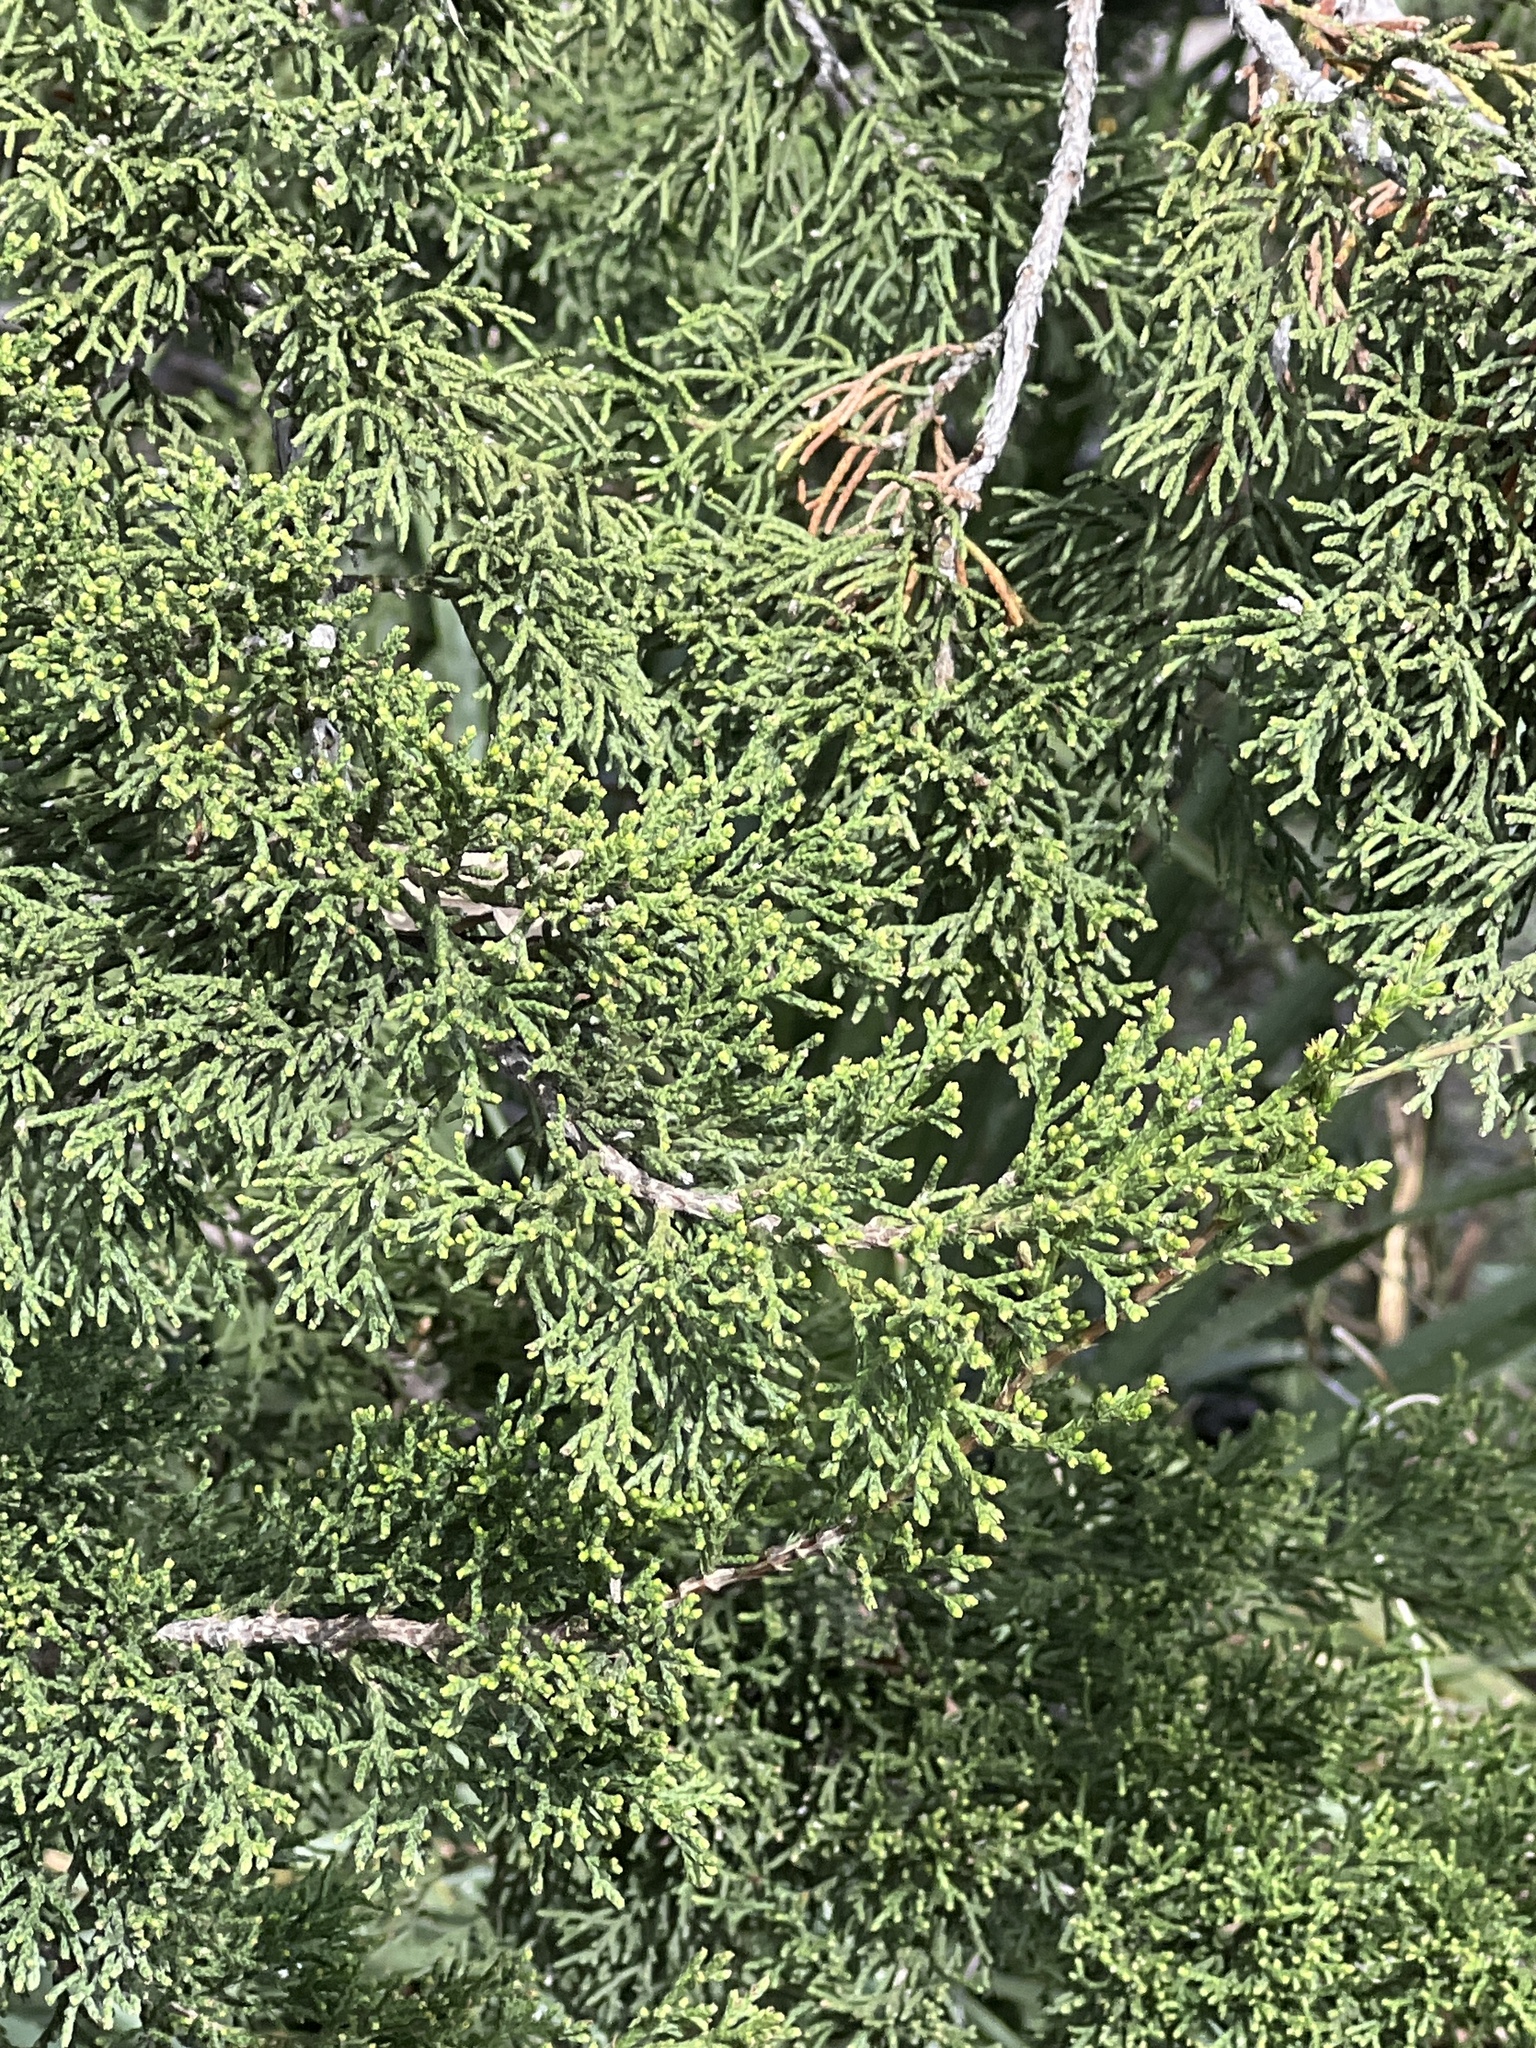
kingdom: Plantae
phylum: Tracheophyta
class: Pinopsida
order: Pinales
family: Cupressaceae
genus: Juniperus
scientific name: Juniperus ashei
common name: Mexican juniper
